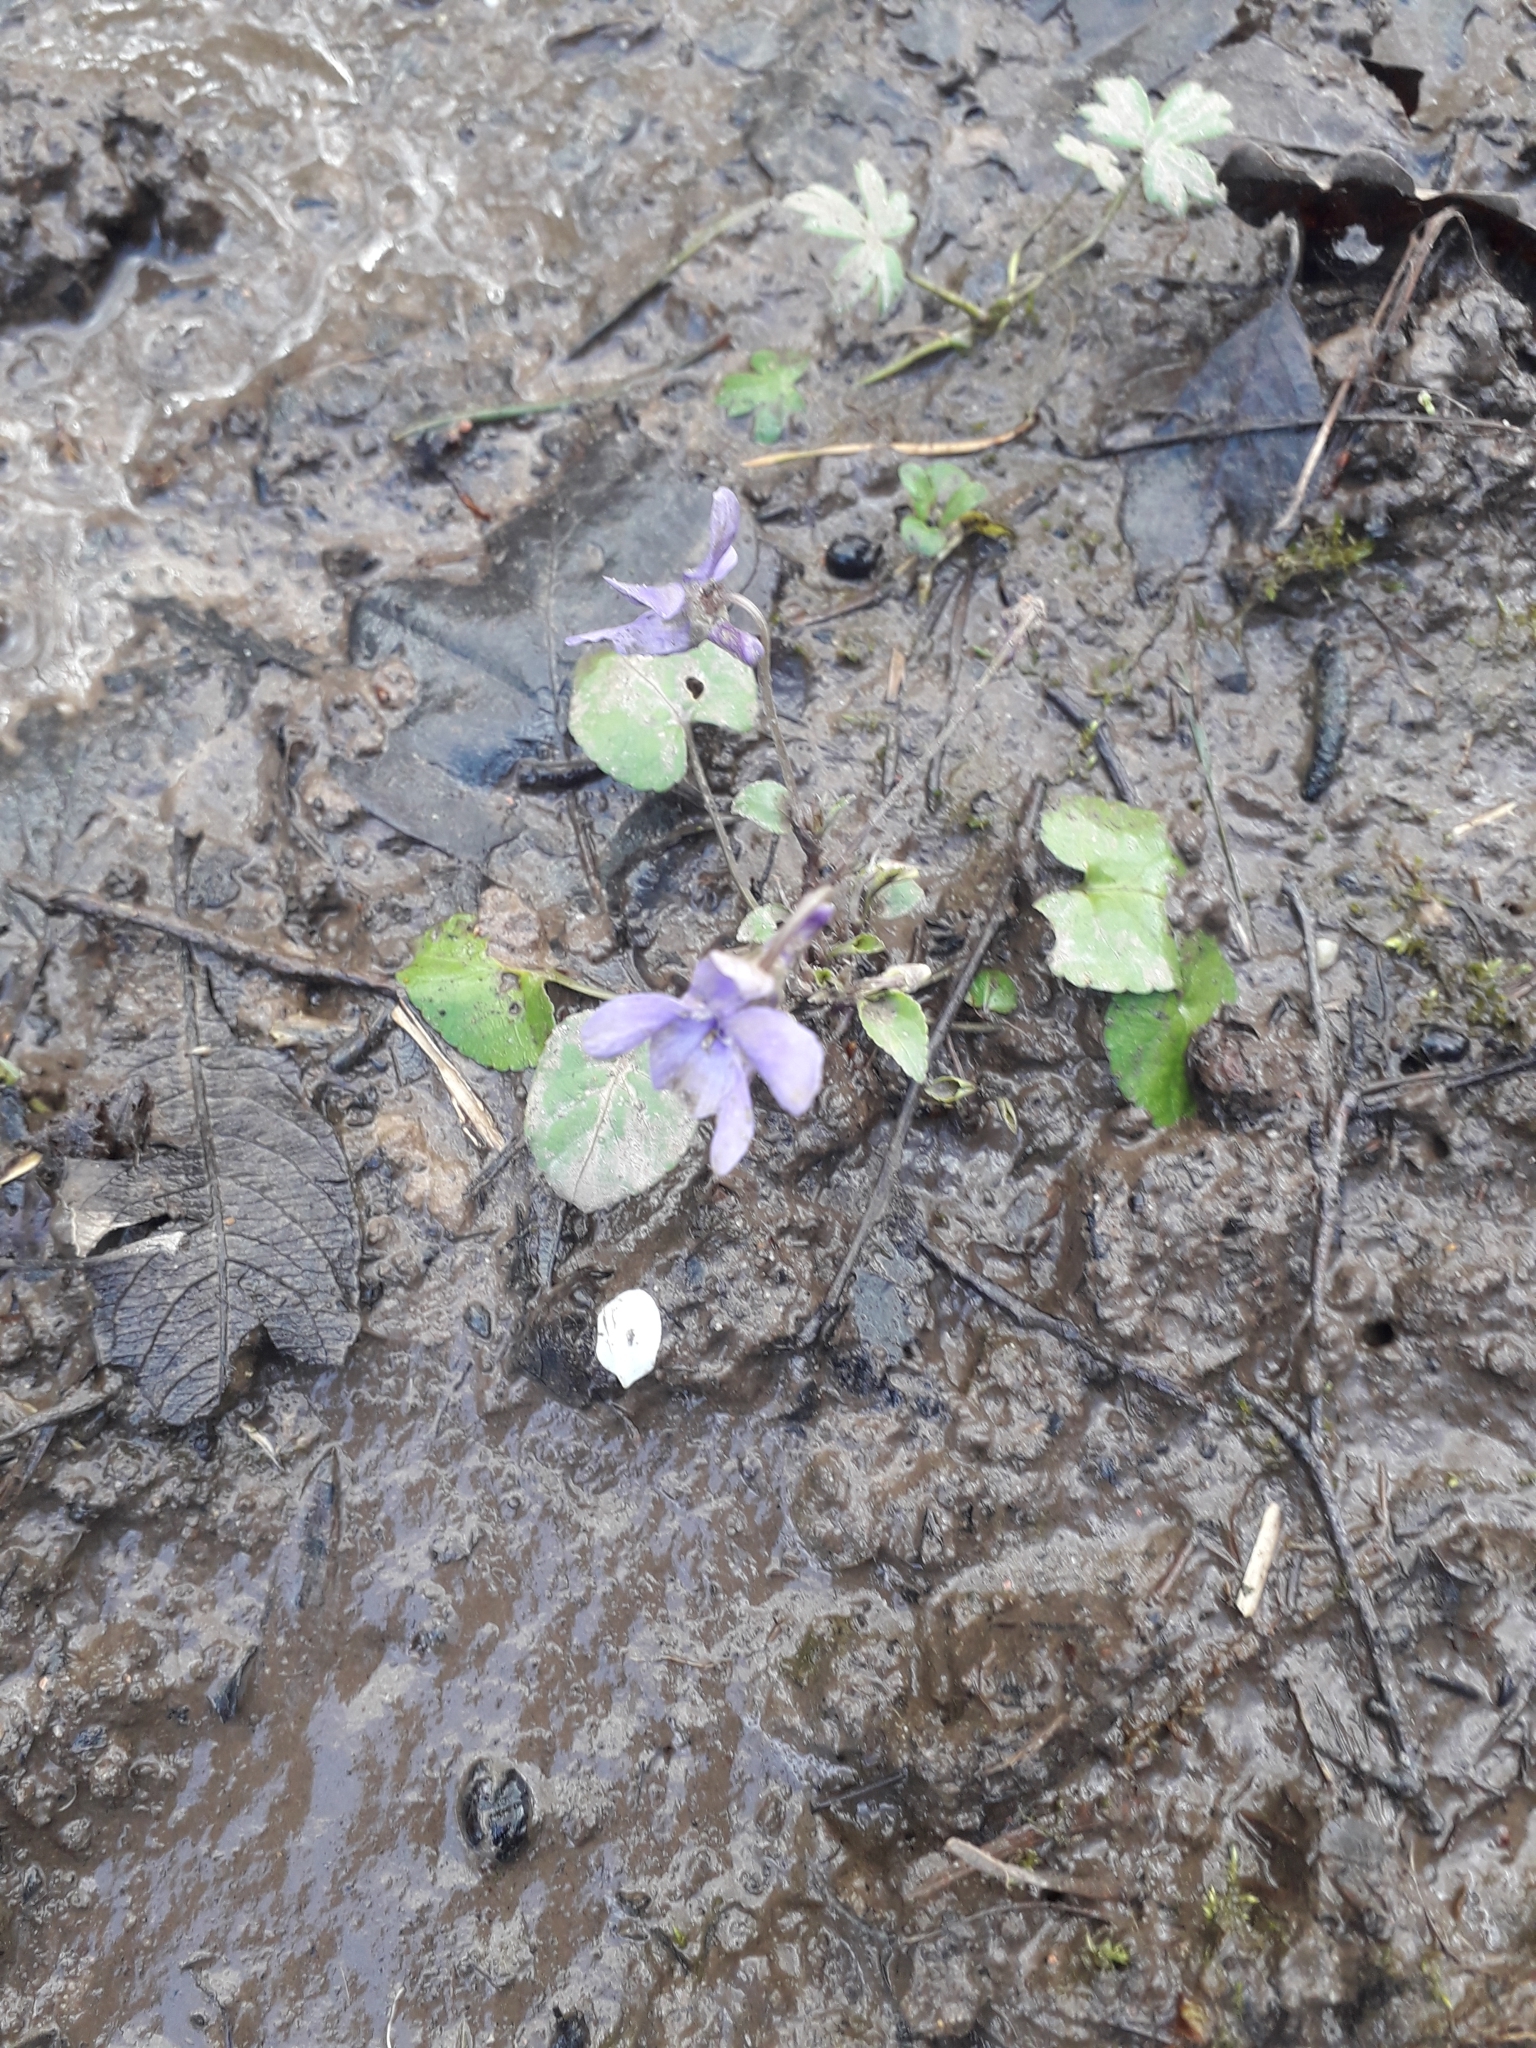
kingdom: Plantae
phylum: Tracheophyta
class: Magnoliopsida
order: Malpighiales
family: Violaceae
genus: Viola
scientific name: Viola reichenbachiana
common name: Early dog-violet
